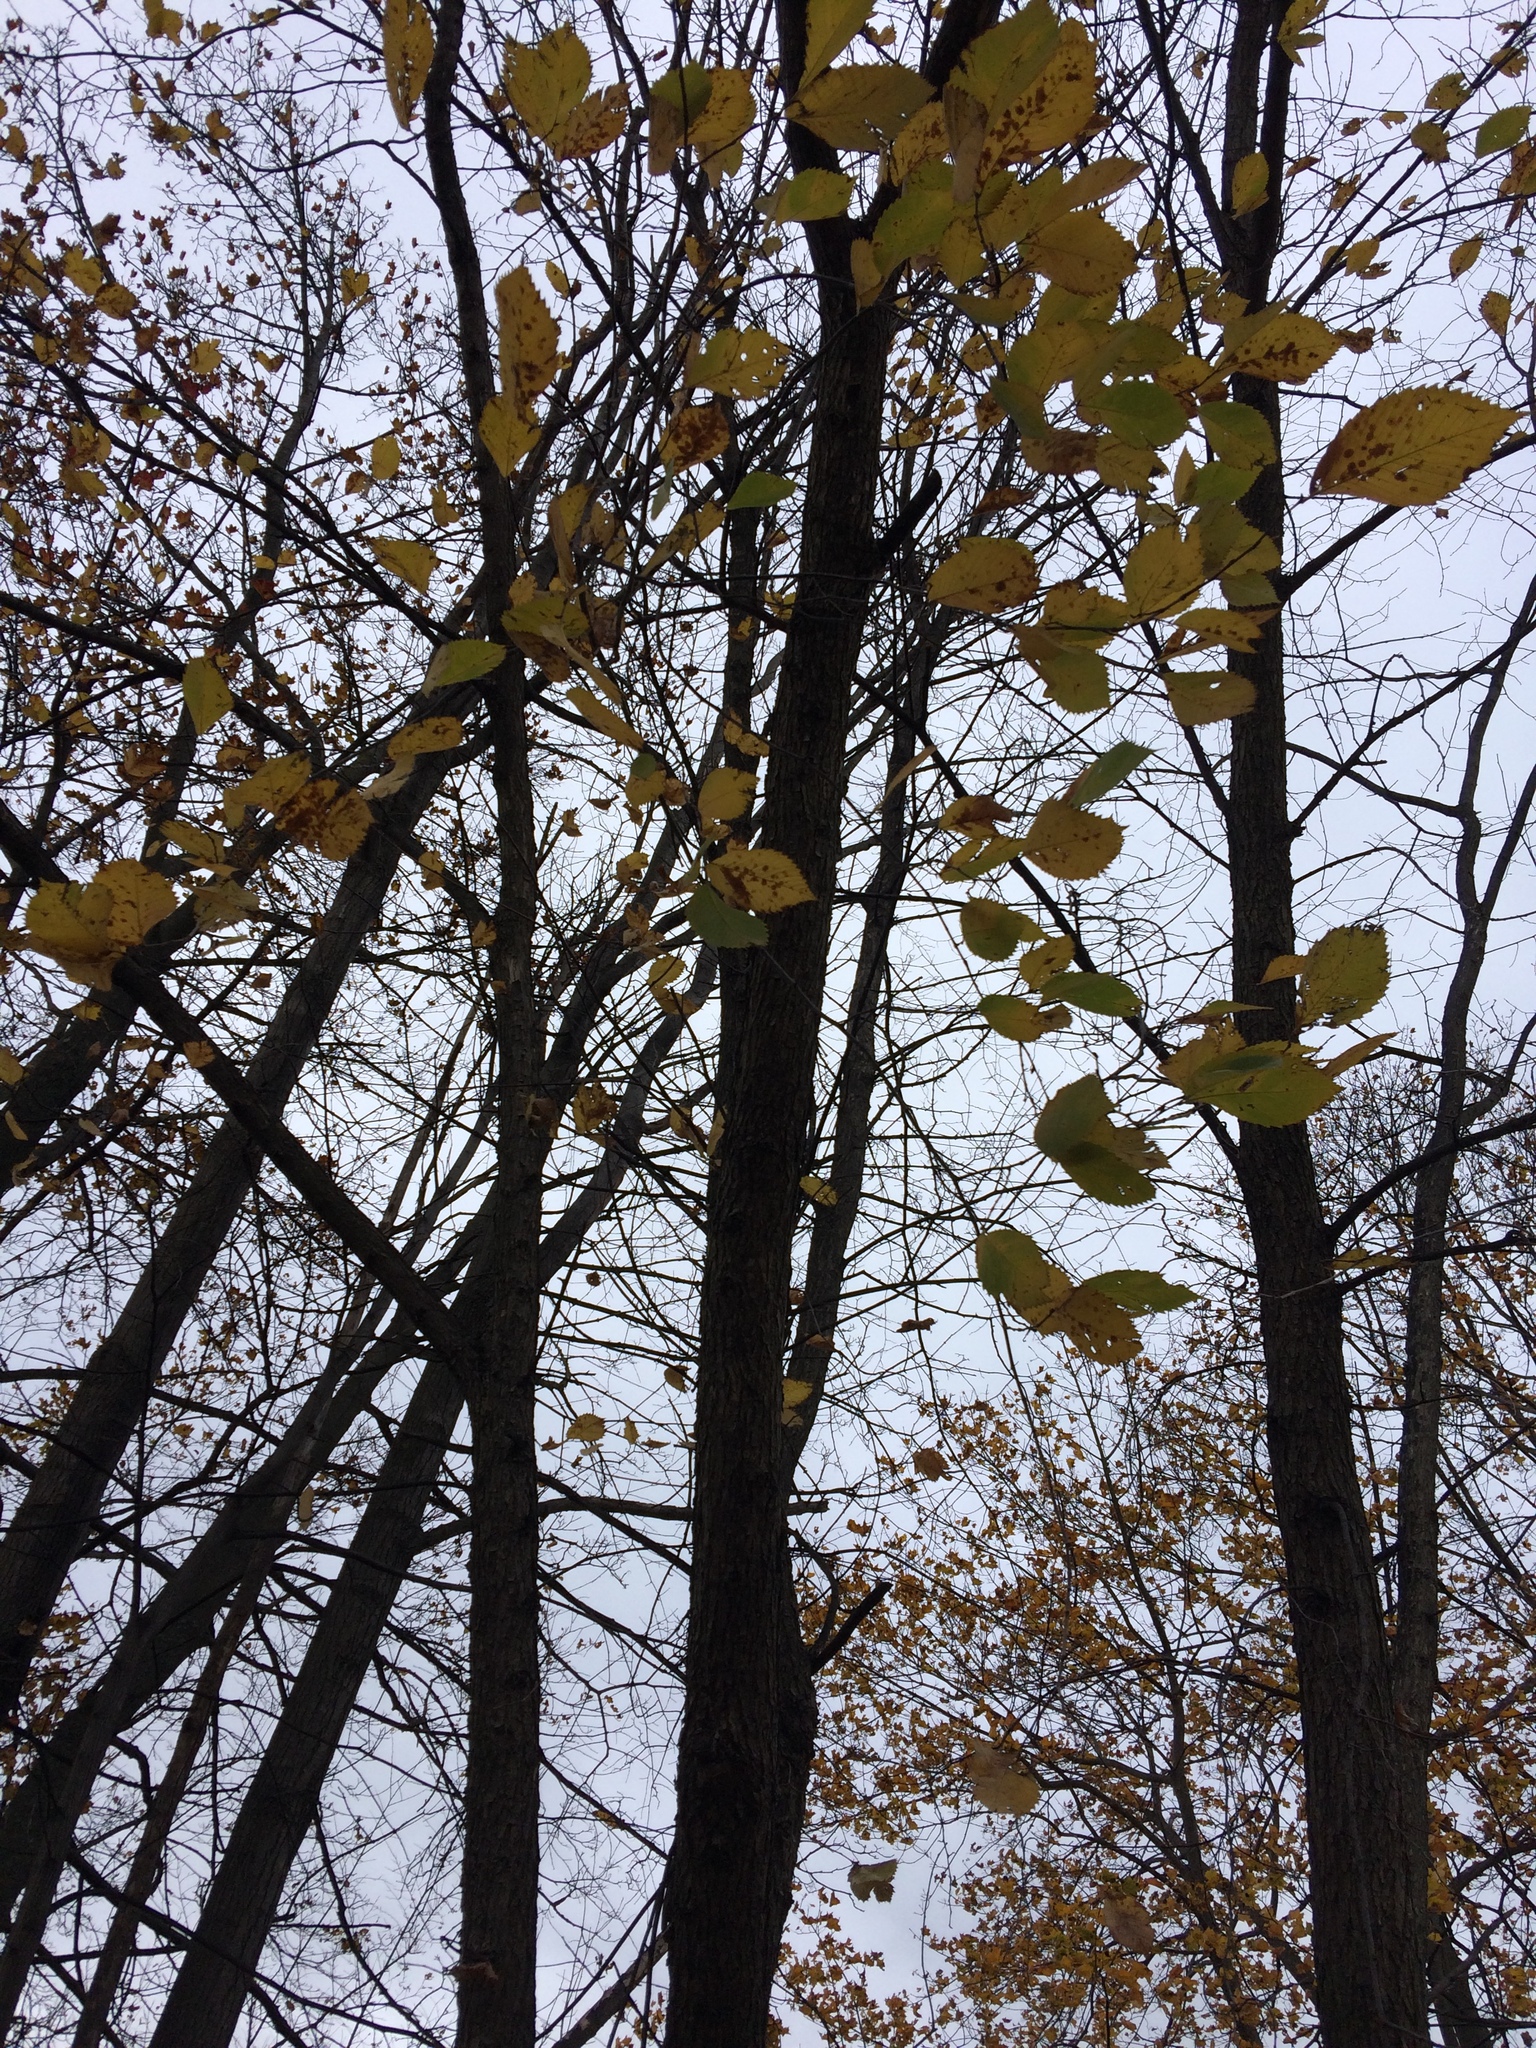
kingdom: Plantae
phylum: Tracheophyta
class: Magnoliopsida
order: Rosales
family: Ulmaceae
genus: Ulmus
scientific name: Ulmus americana
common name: American elm
